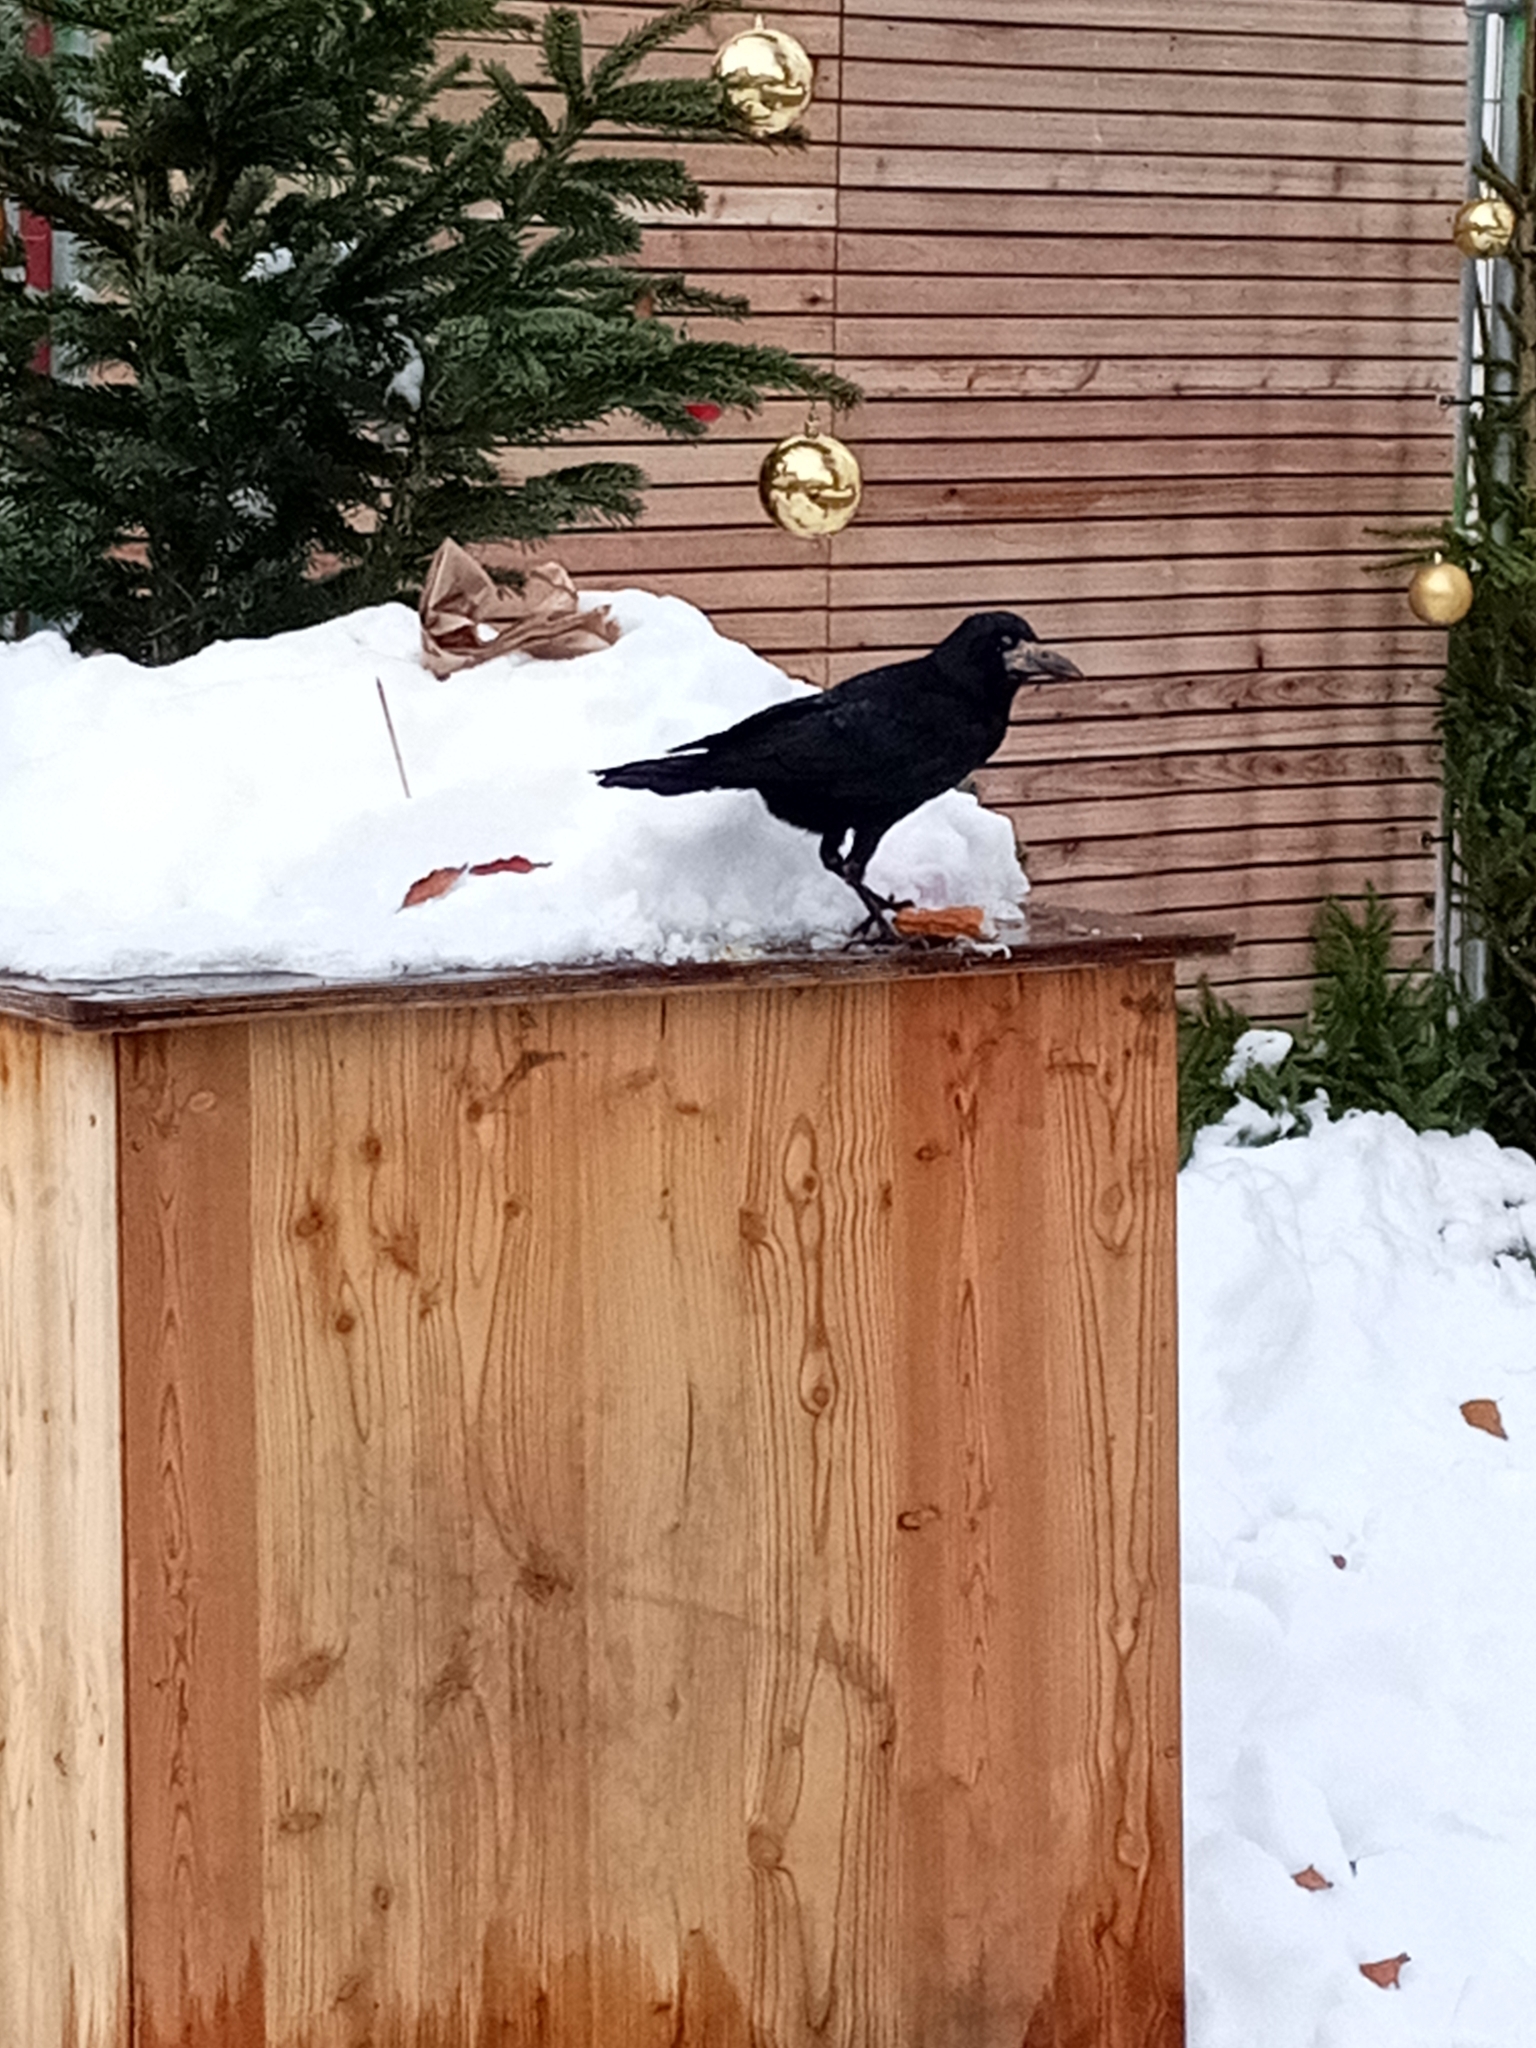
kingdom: Animalia
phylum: Chordata
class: Aves
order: Passeriformes
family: Corvidae
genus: Corvus
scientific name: Corvus frugilegus
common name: Rook
